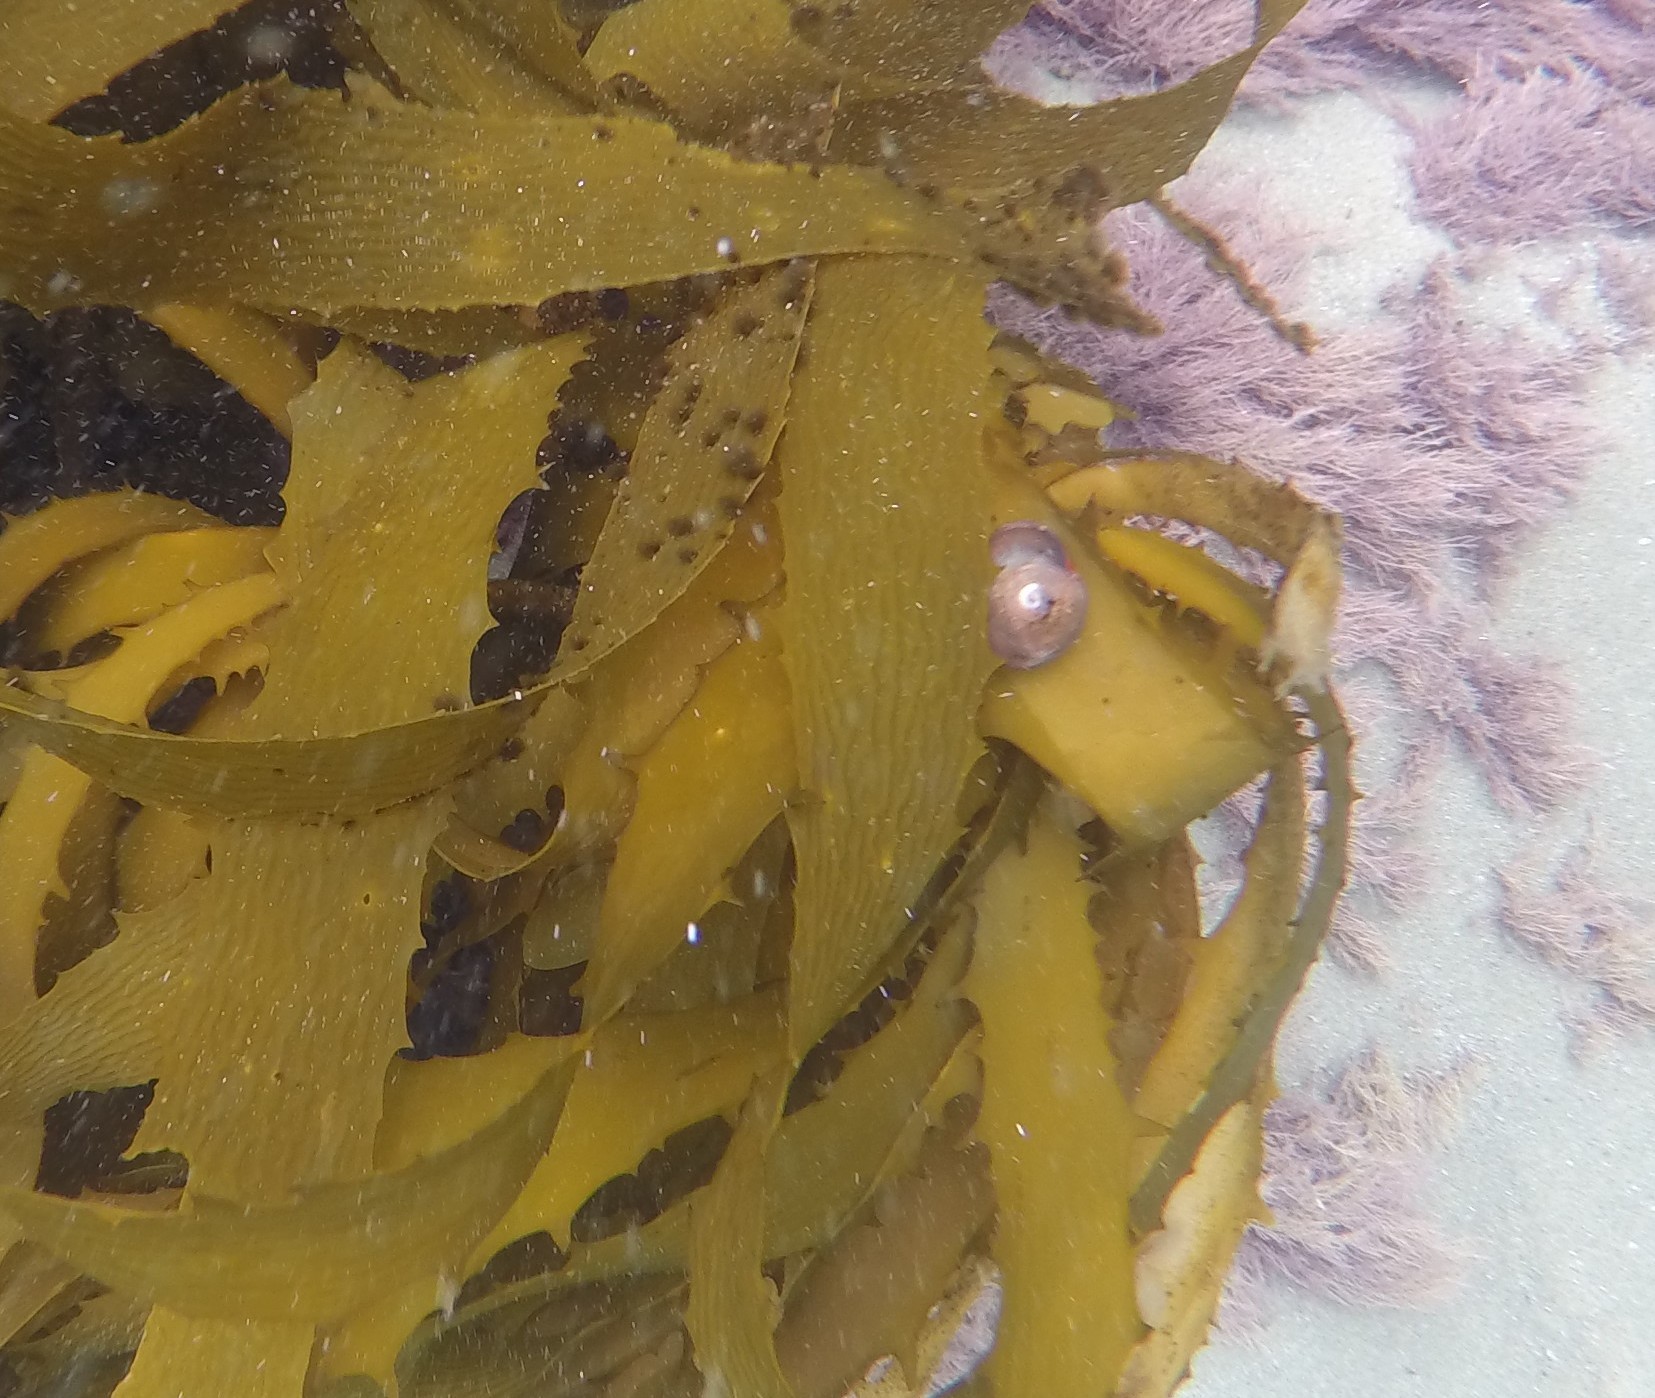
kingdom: Animalia
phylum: Mollusca
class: Gastropoda
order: Trochida
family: Tegulidae
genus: Norrisia
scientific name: Norrisia norrisii
